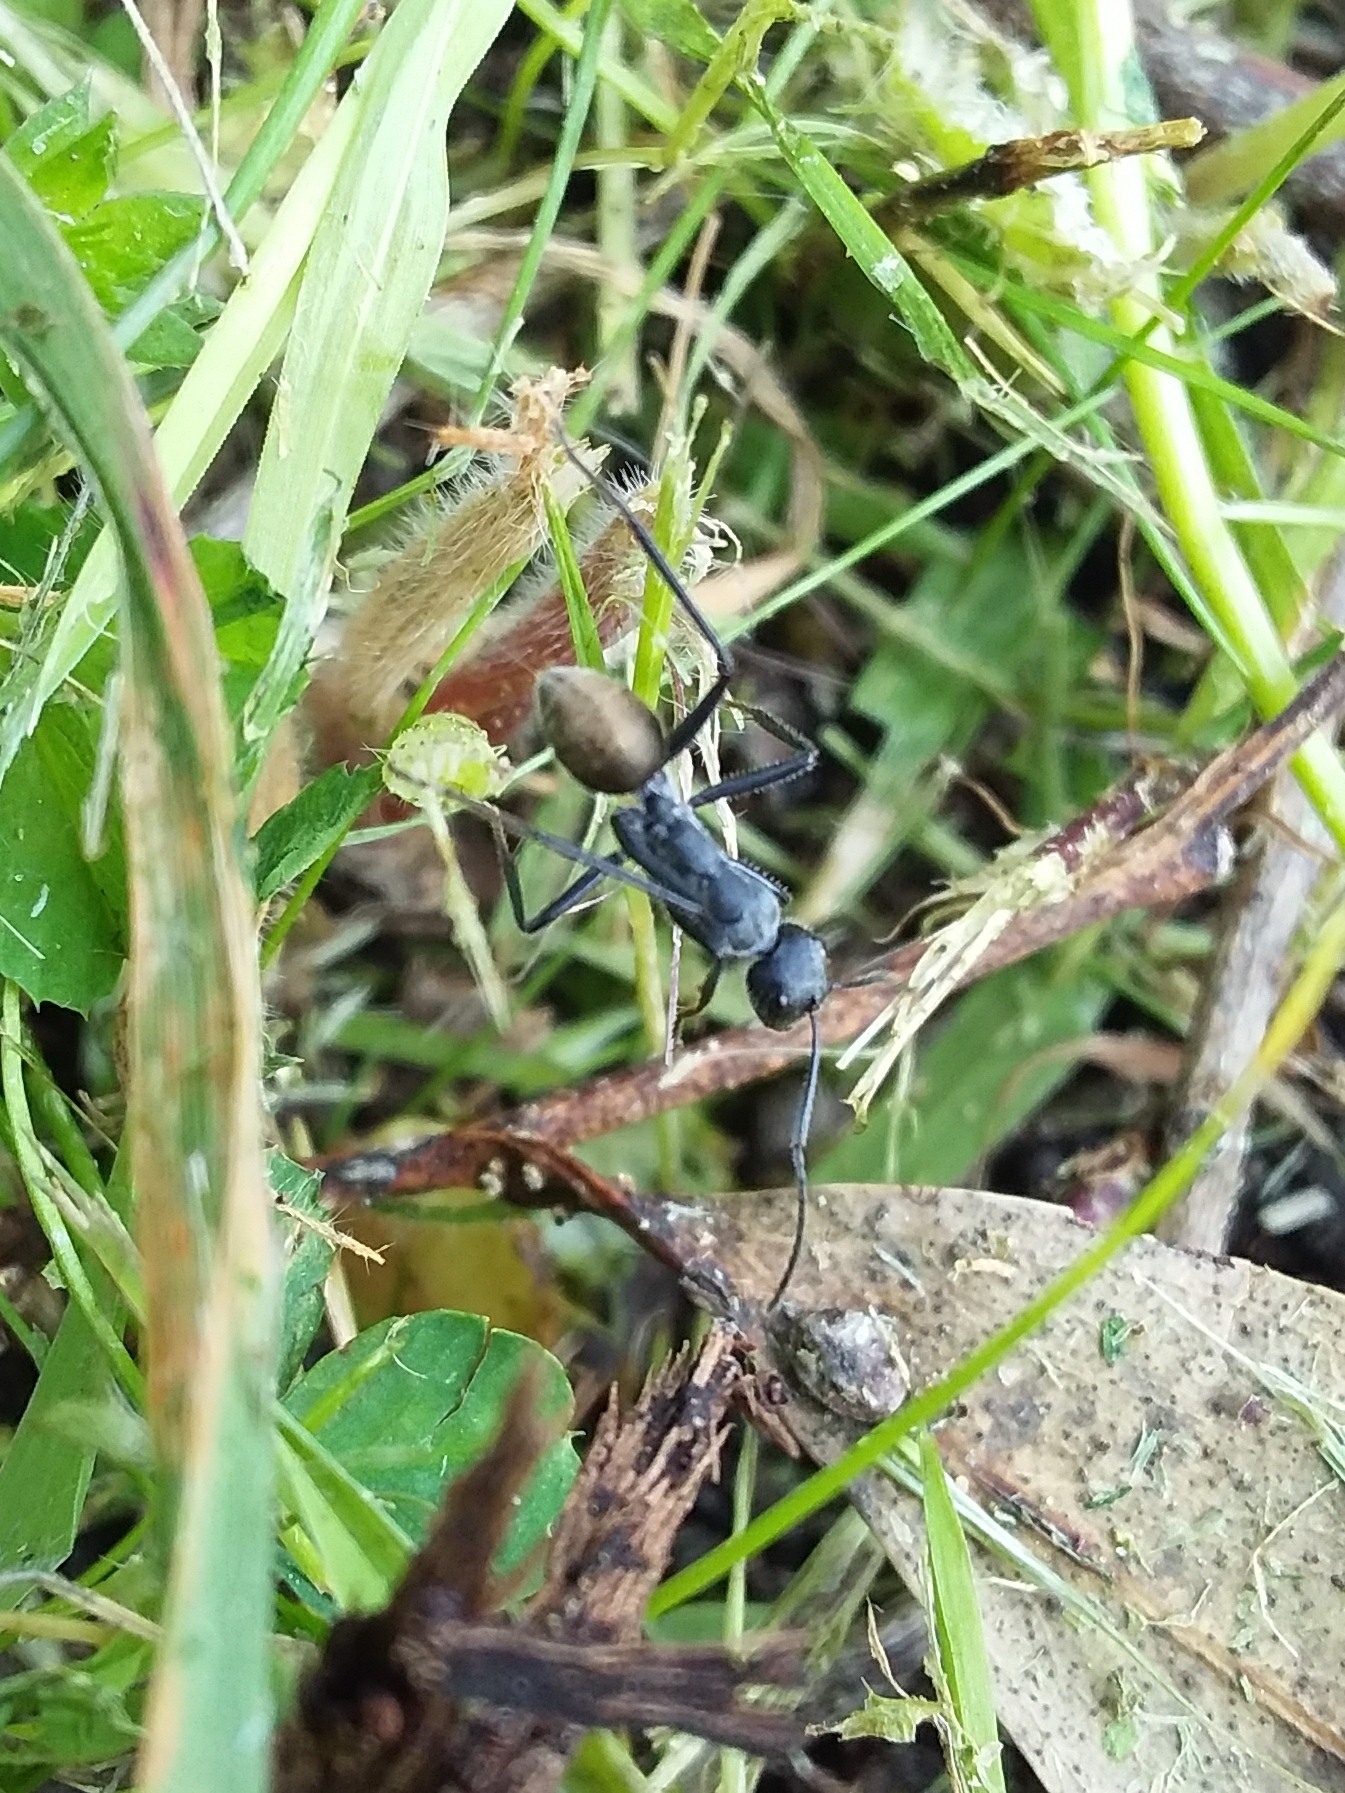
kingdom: Animalia
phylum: Arthropoda
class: Insecta
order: Hymenoptera
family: Formicidae
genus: Camponotus
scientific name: Camponotus suffusus
